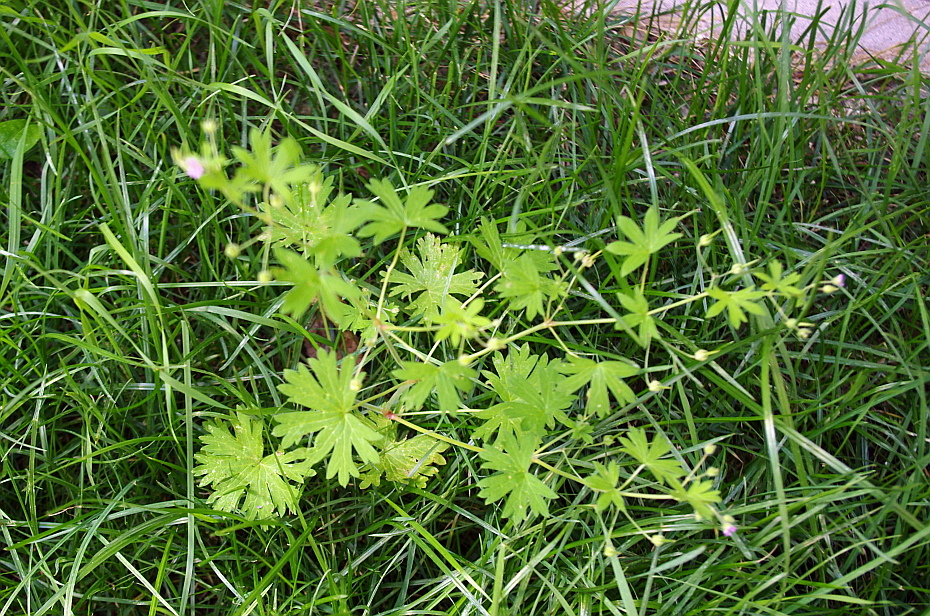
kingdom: Plantae
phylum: Tracheophyta
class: Magnoliopsida
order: Geraniales
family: Geraniaceae
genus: Geranium
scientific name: Geranium pusillum
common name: Small geranium
